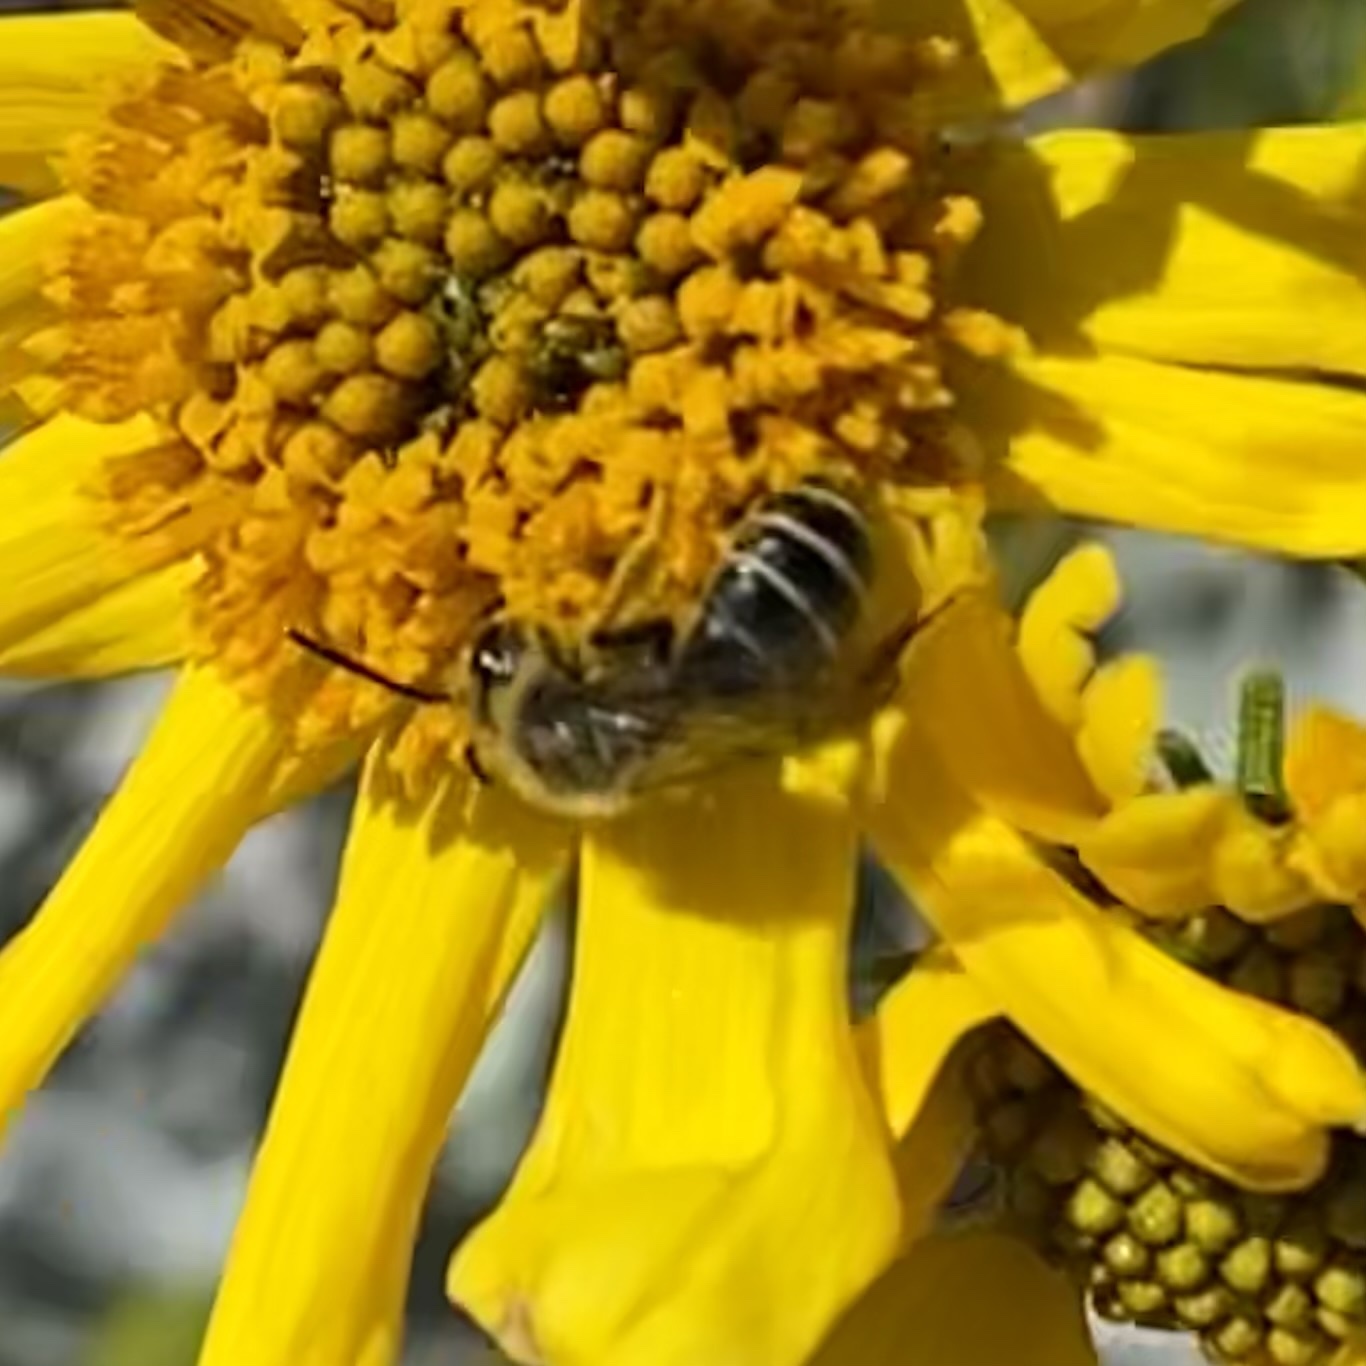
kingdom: Animalia
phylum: Arthropoda
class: Insecta
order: Hymenoptera
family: Andrenidae
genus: Andrena
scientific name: Andrena
